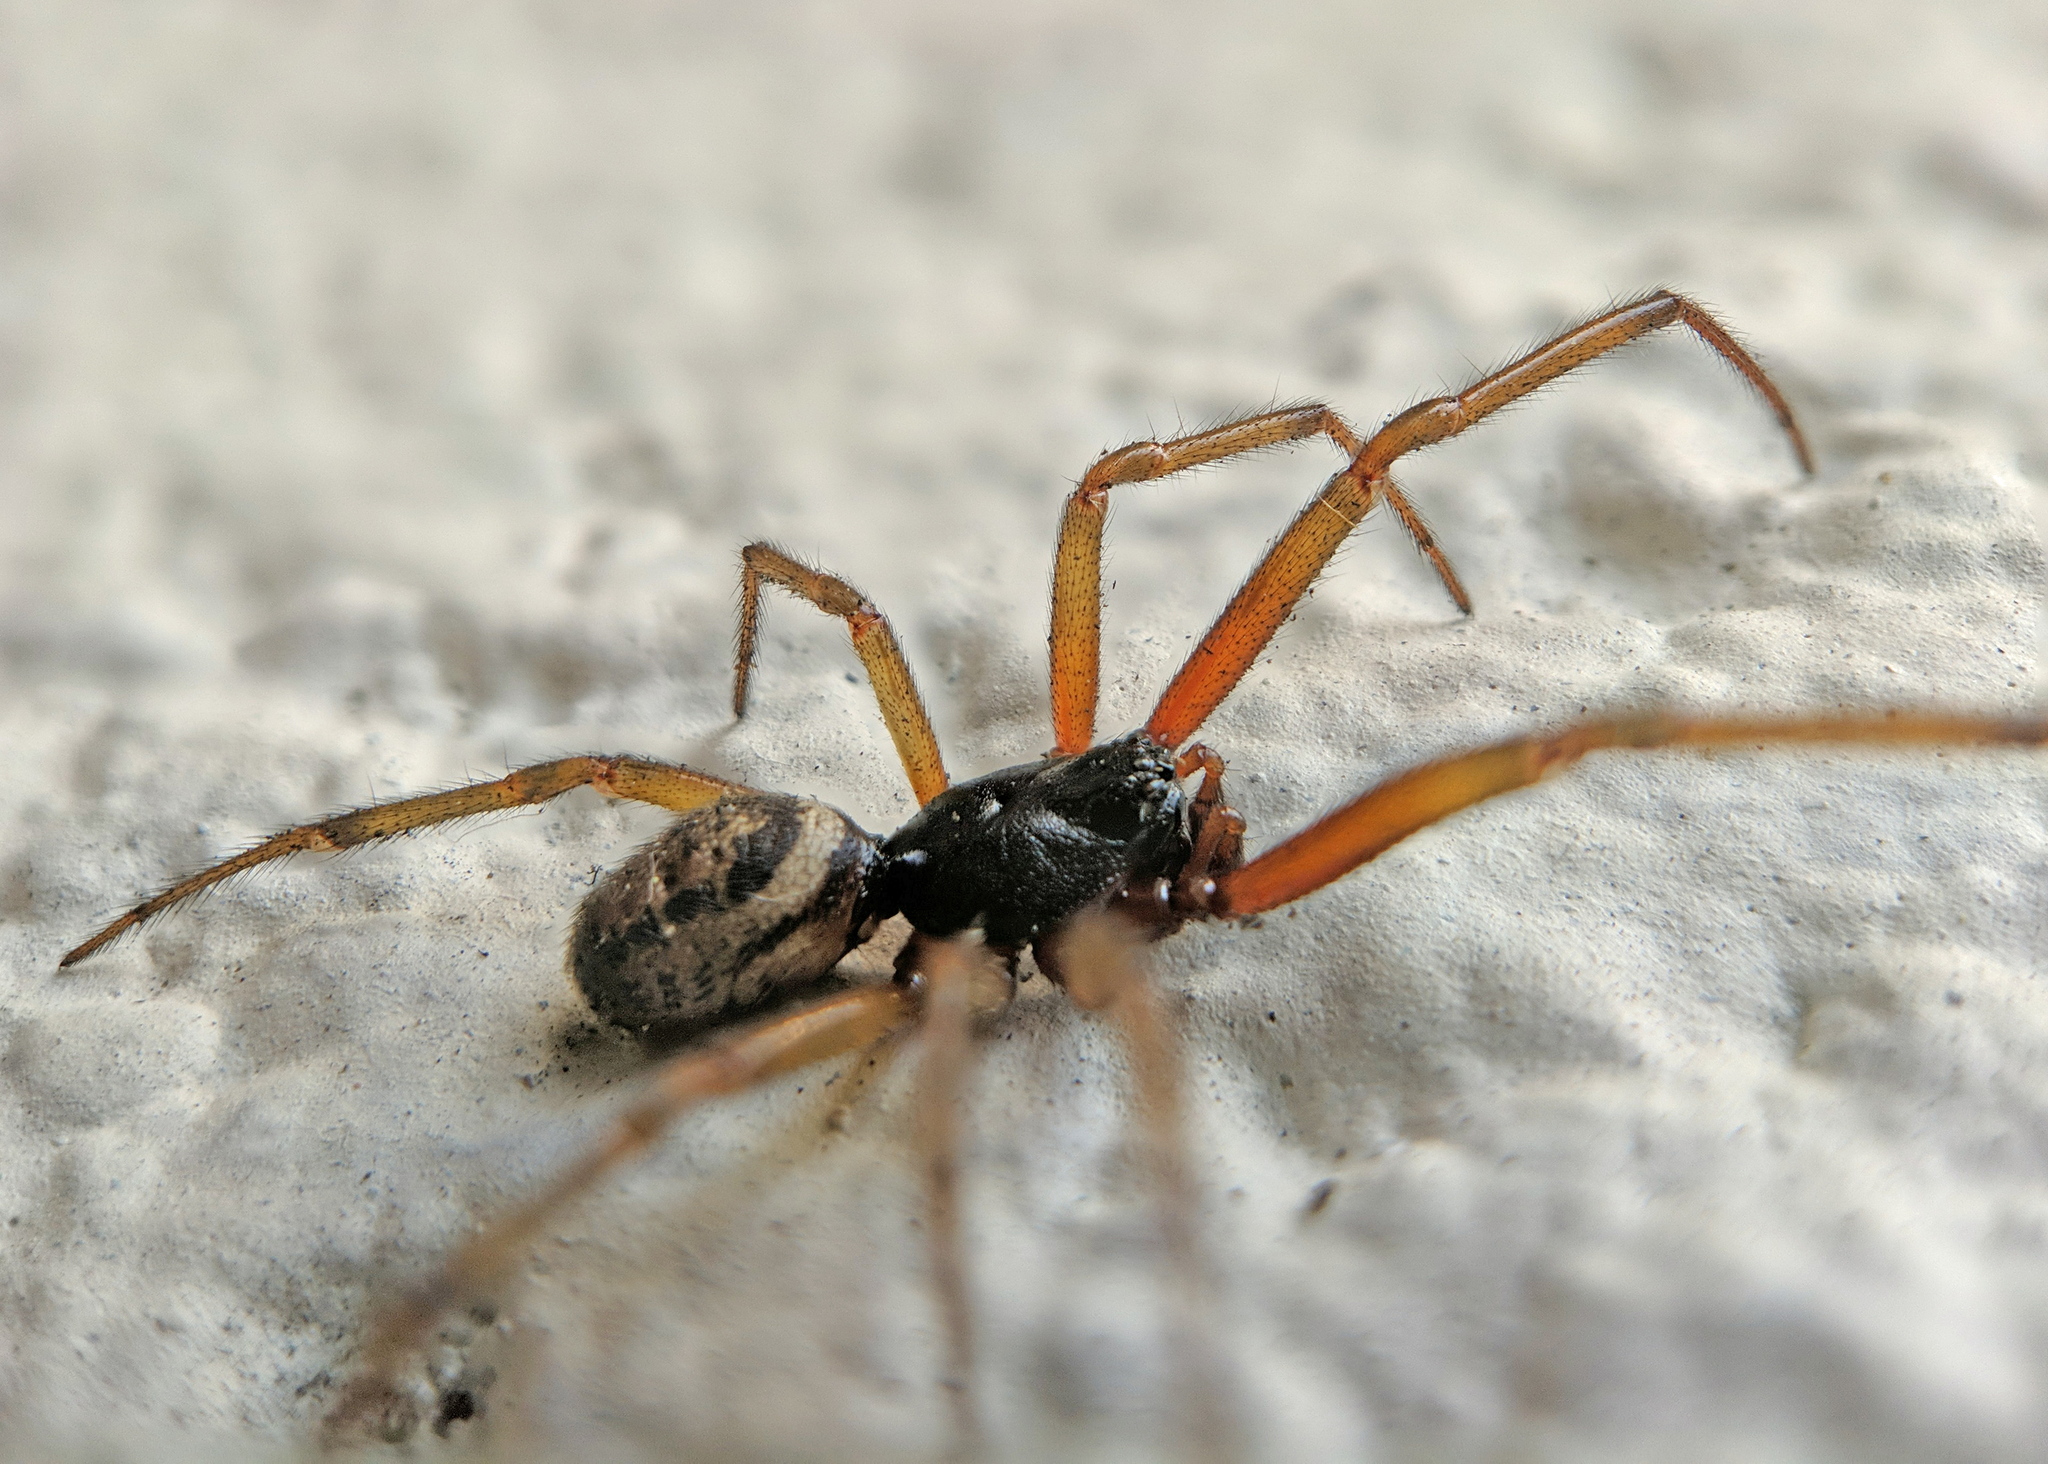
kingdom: Animalia
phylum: Arthropoda
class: Arachnida
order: Araneae
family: Theridiidae
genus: Steatoda
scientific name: Steatoda nobilis
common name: Cobweb weaver
